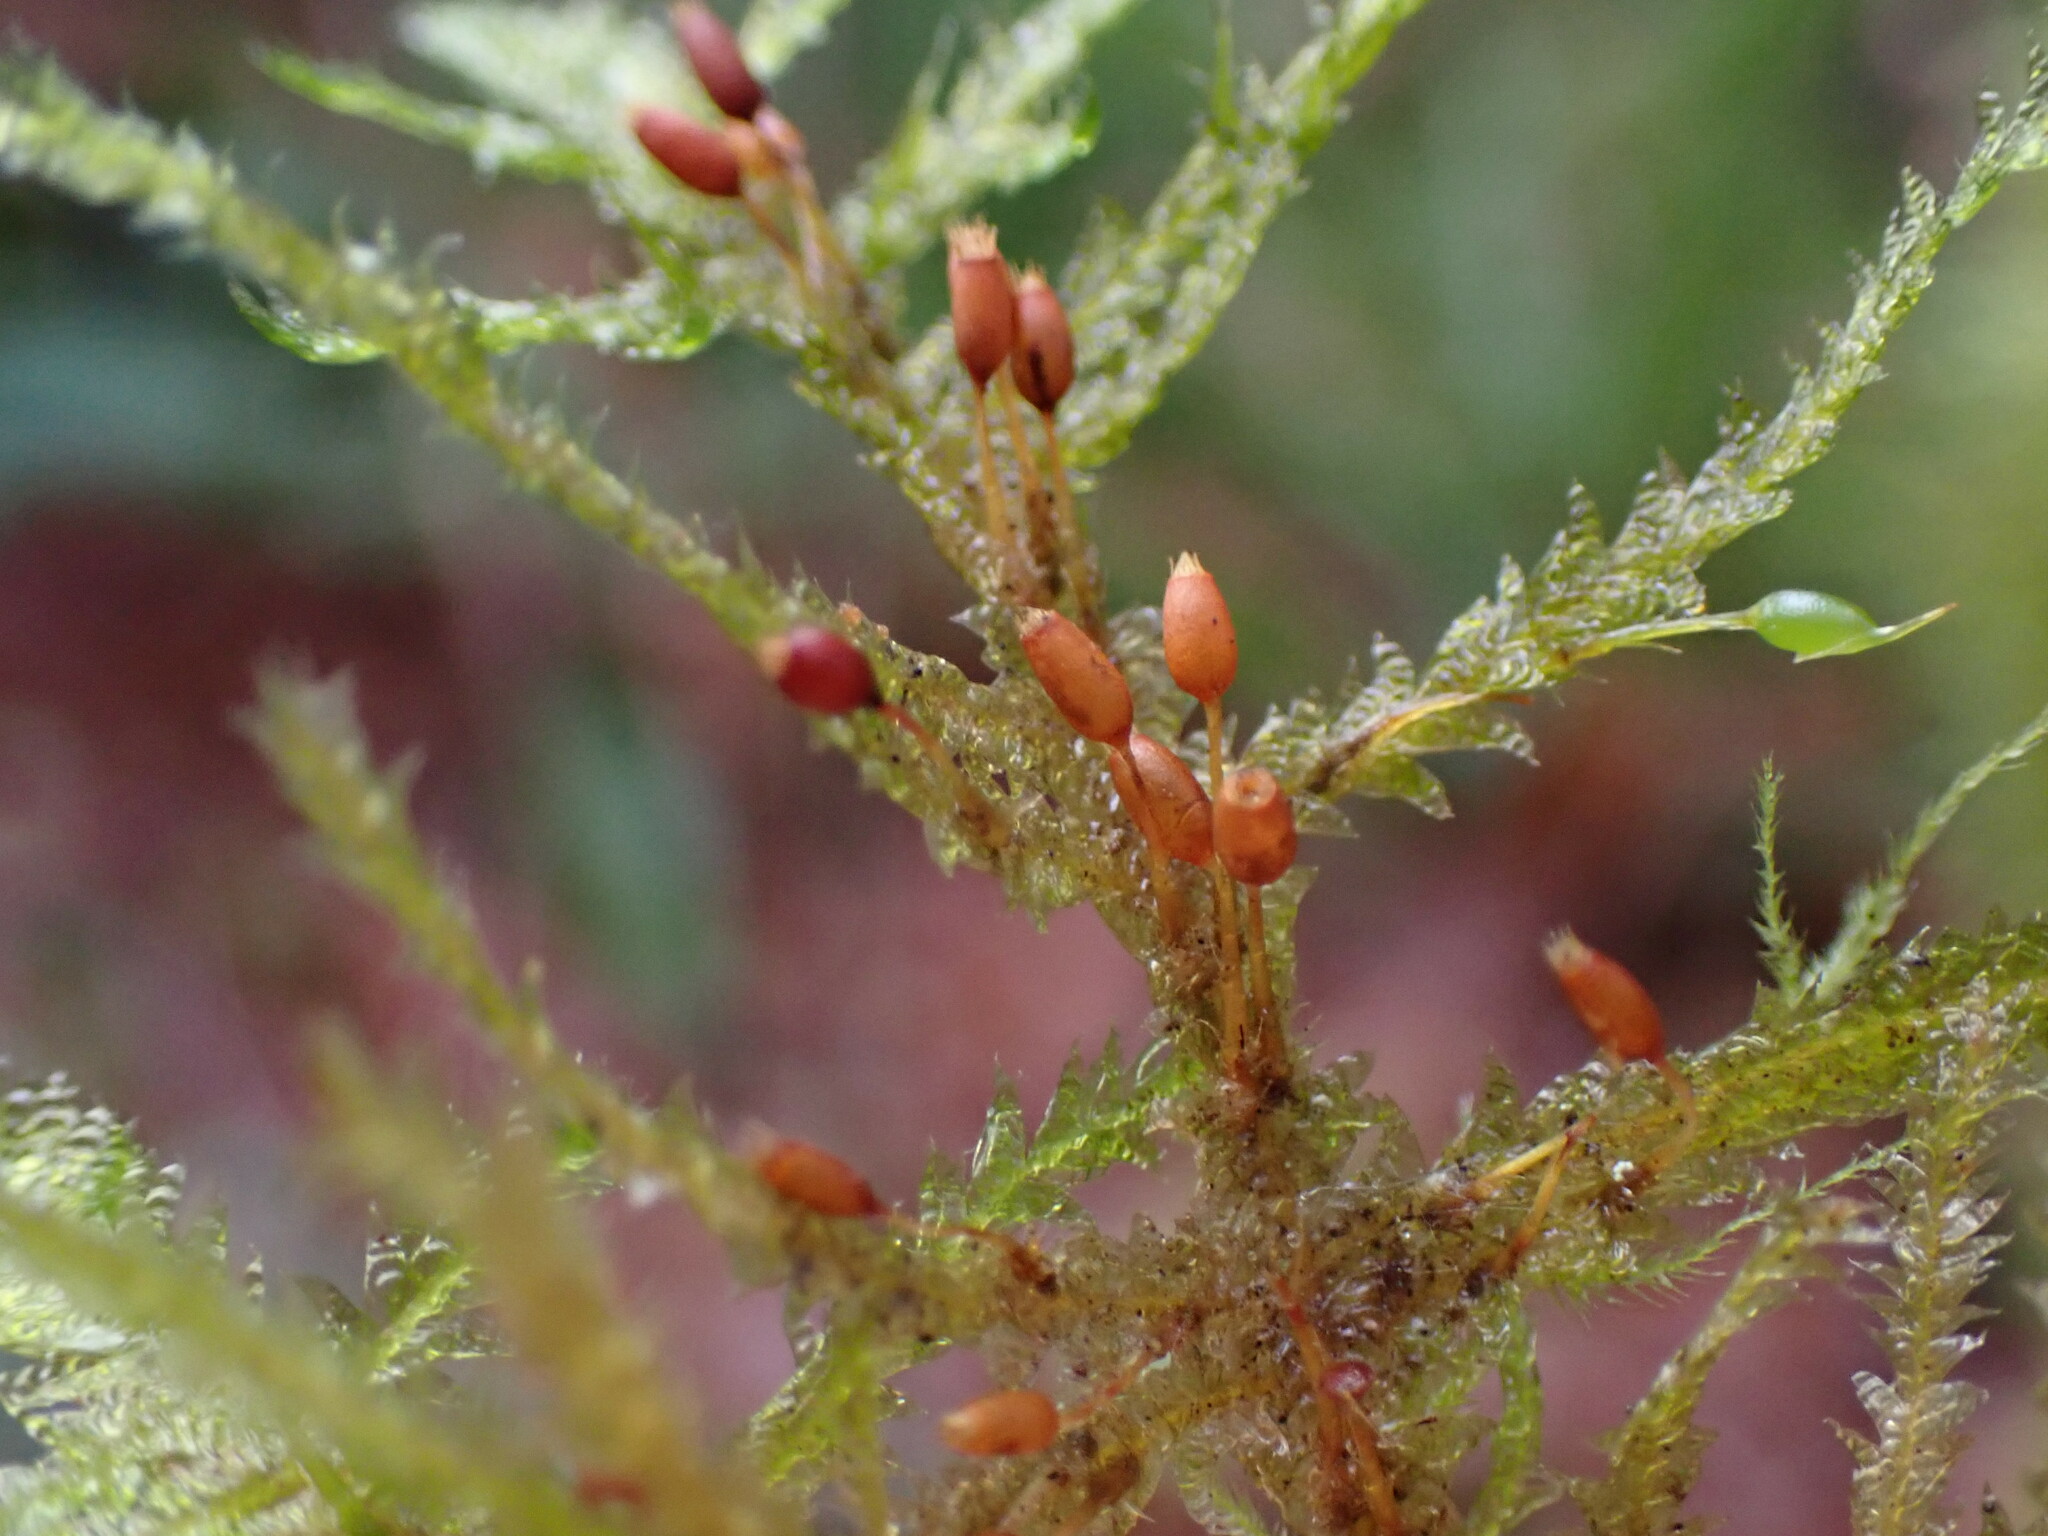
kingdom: Plantae
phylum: Bryophyta
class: Bryopsida
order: Hypnales
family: Neckeraceae
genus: Neckera
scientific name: Neckera douglasii
